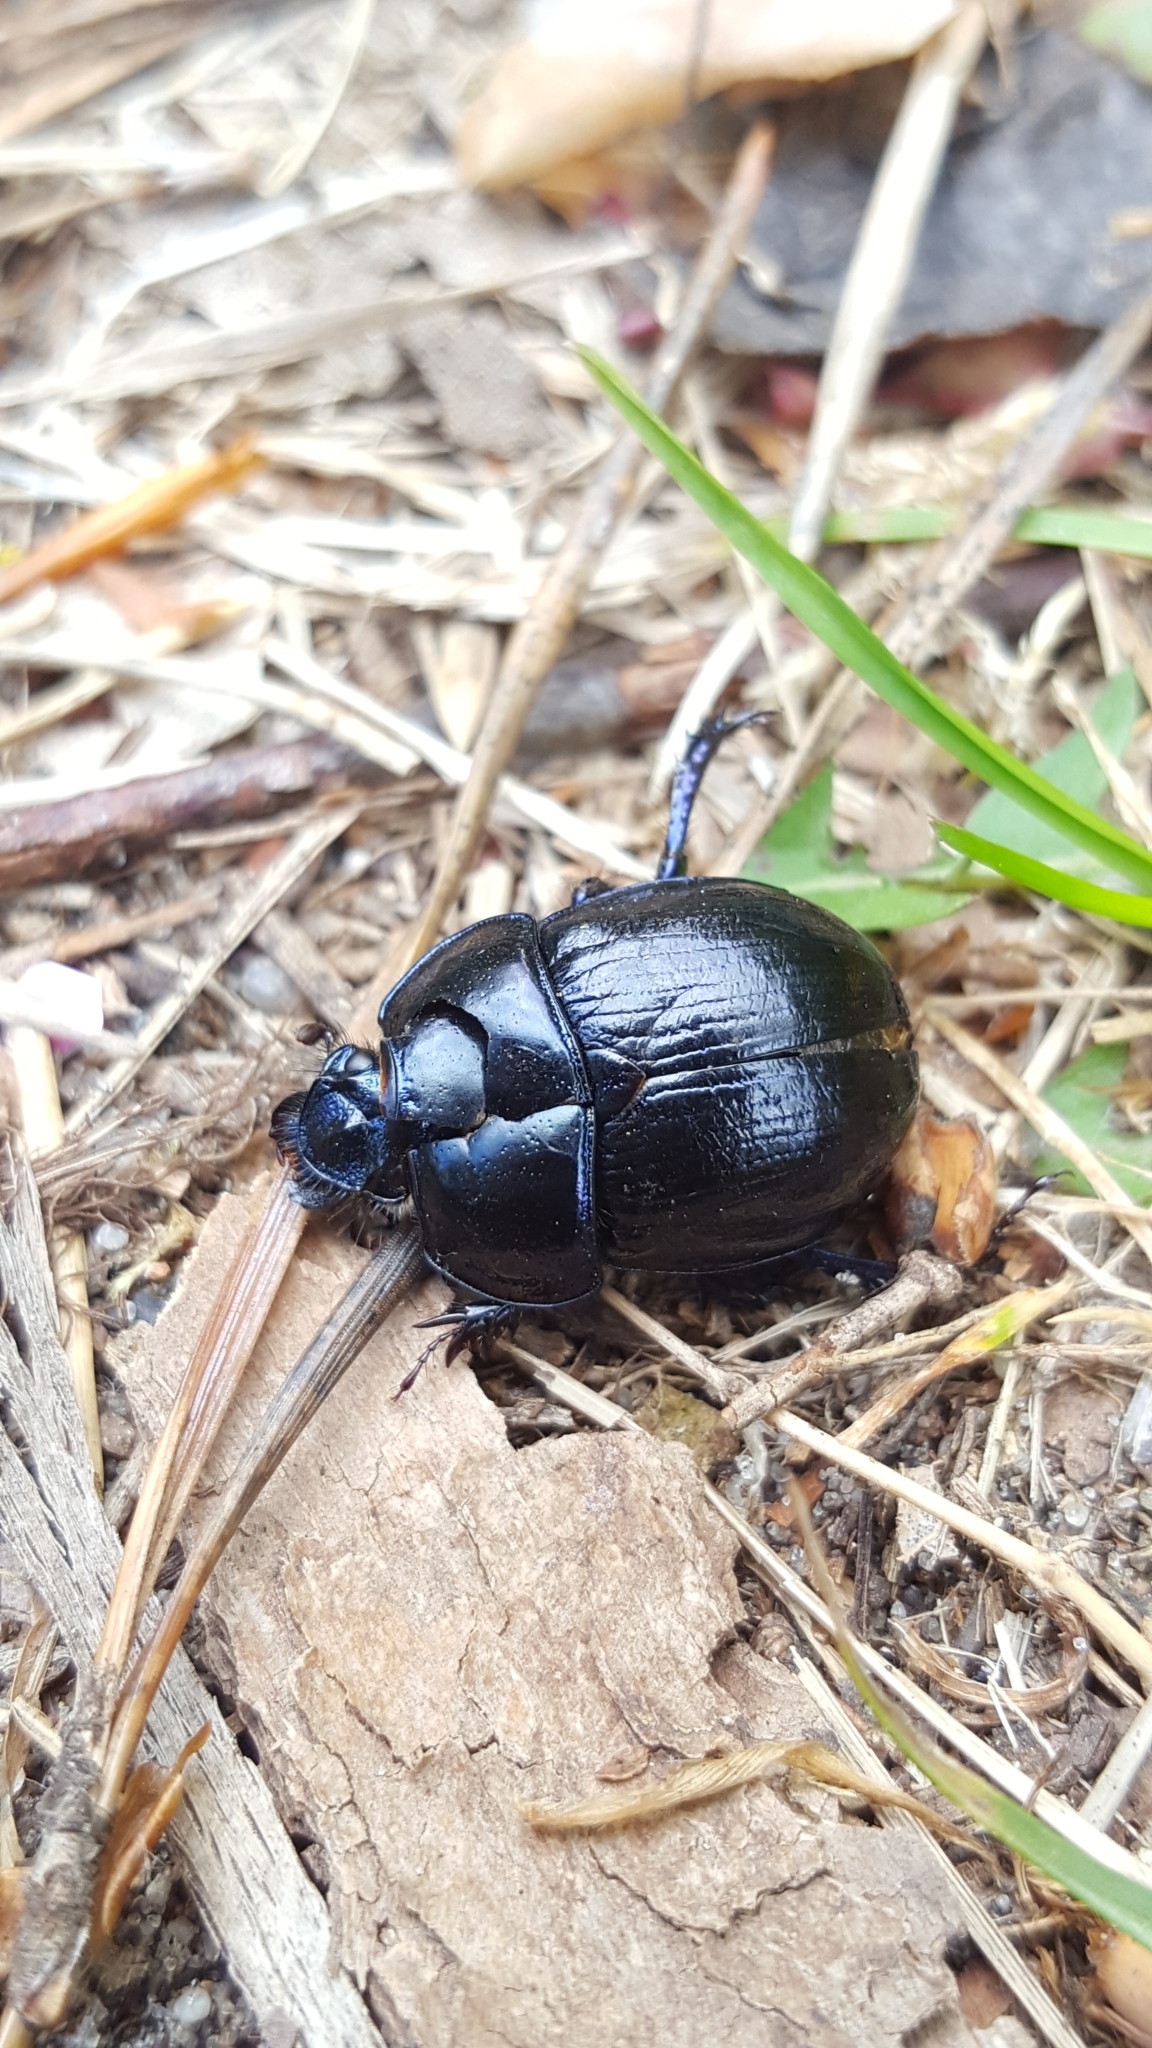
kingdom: Animalia
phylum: Arthropoda
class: Insecta
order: Coleoptera
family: Geotrupidae
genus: Anoplotrupes
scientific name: Anoplotrupes stercorosus
